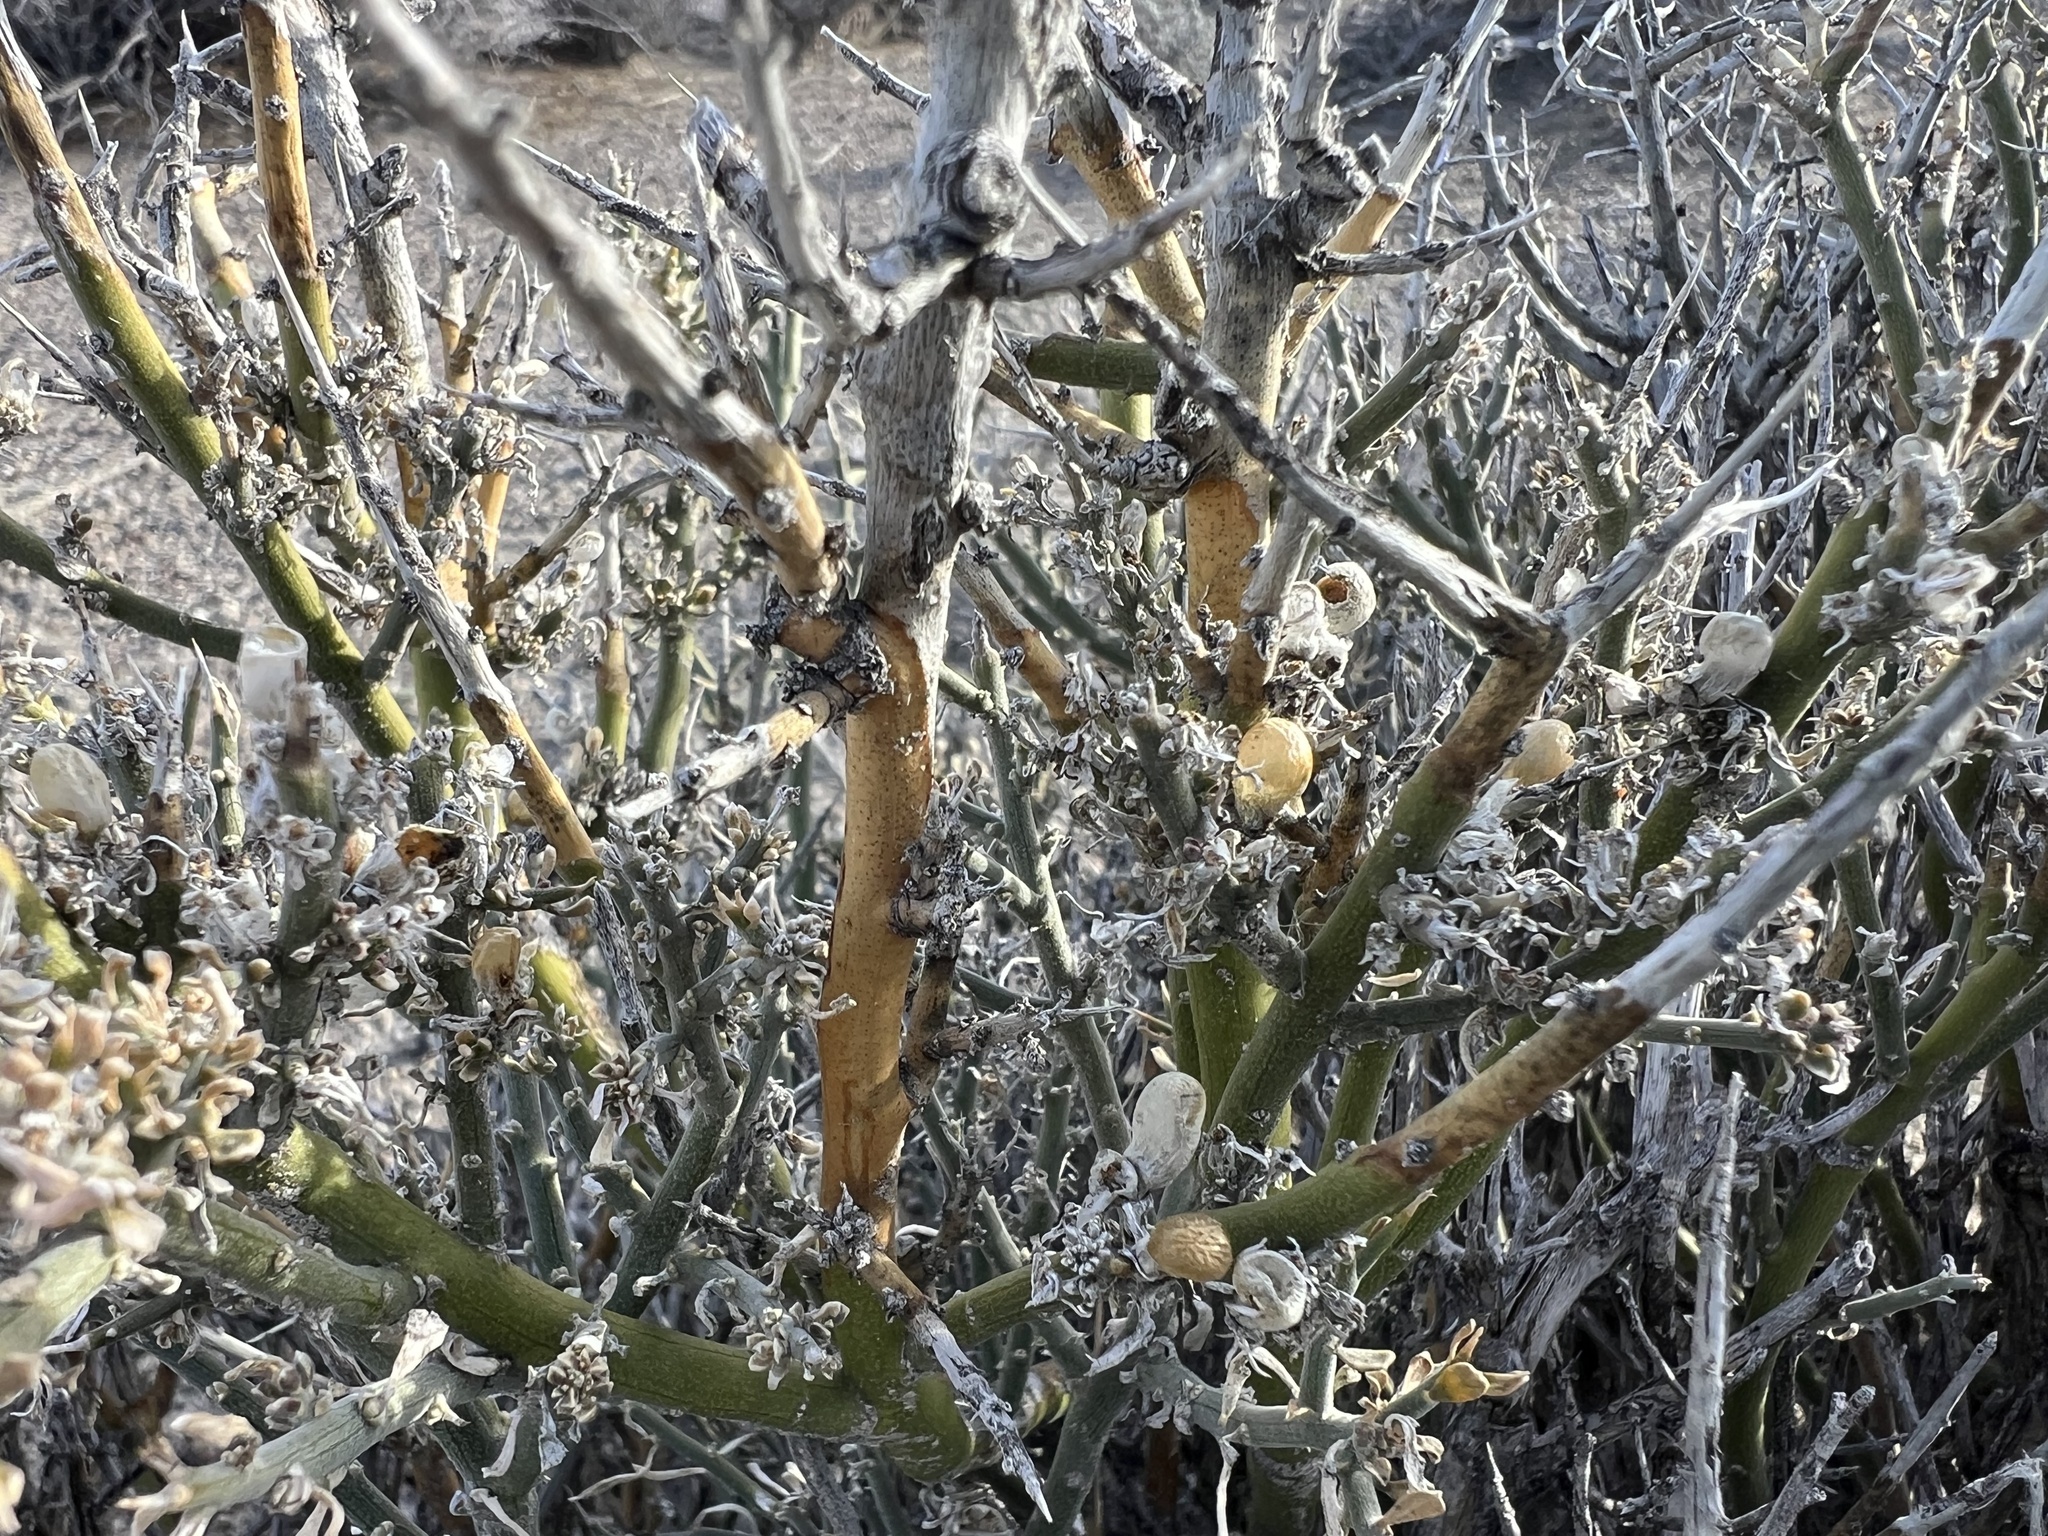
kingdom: Plantae
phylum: Tracheophyta
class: Magnoliopsida
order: Lamiales
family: Oleaceae
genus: Menodora
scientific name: Menodora spinescens
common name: Spiny menodora
